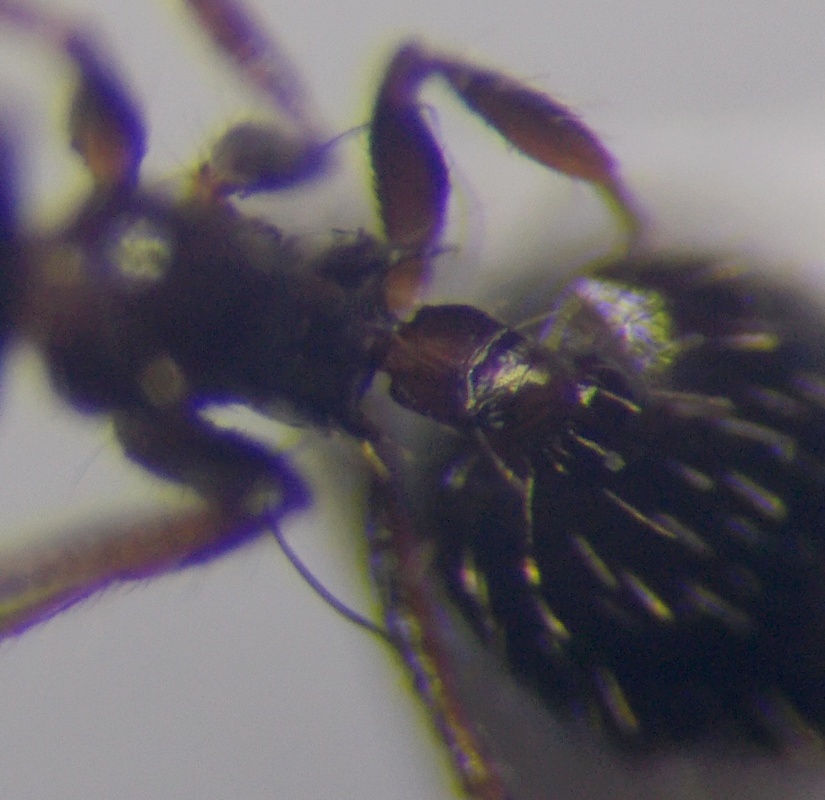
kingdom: Animalia
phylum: Arthropoda
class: Insecta
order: Hymenoptera
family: Formicidae
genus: Crematogaster
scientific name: Crematogaster sordidula
